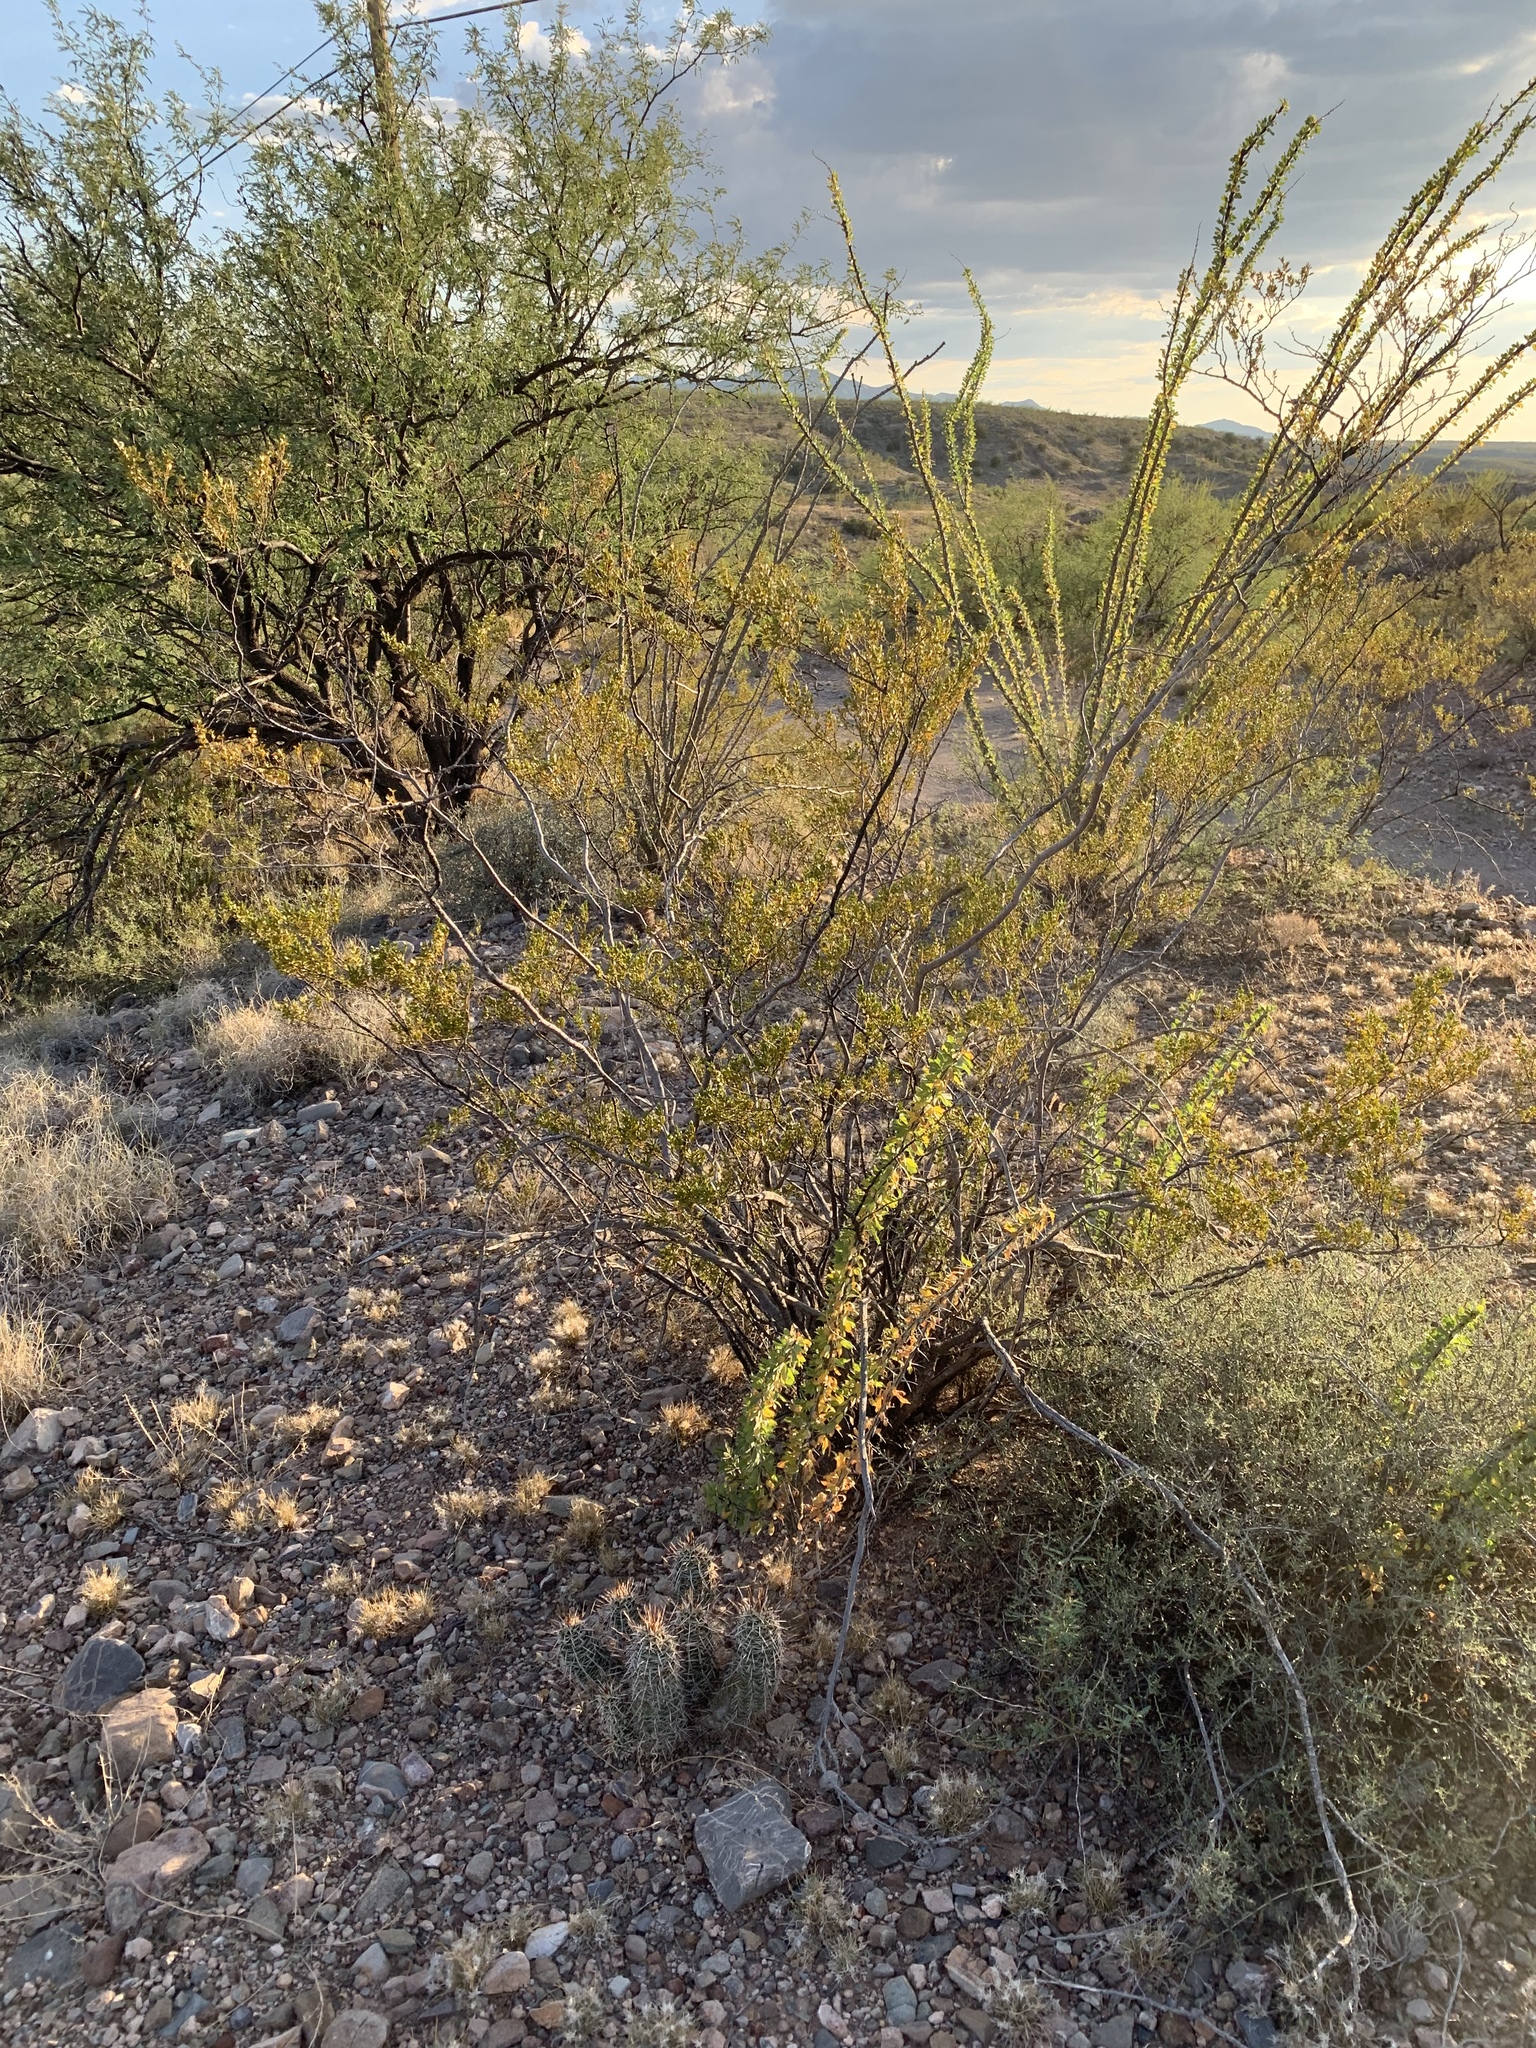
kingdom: Plantae
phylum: Tracheophyta
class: Magnoliopsida
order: Zygophyllales
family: Zygophyllaceae
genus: Larrea
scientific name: Larrea tridentata
